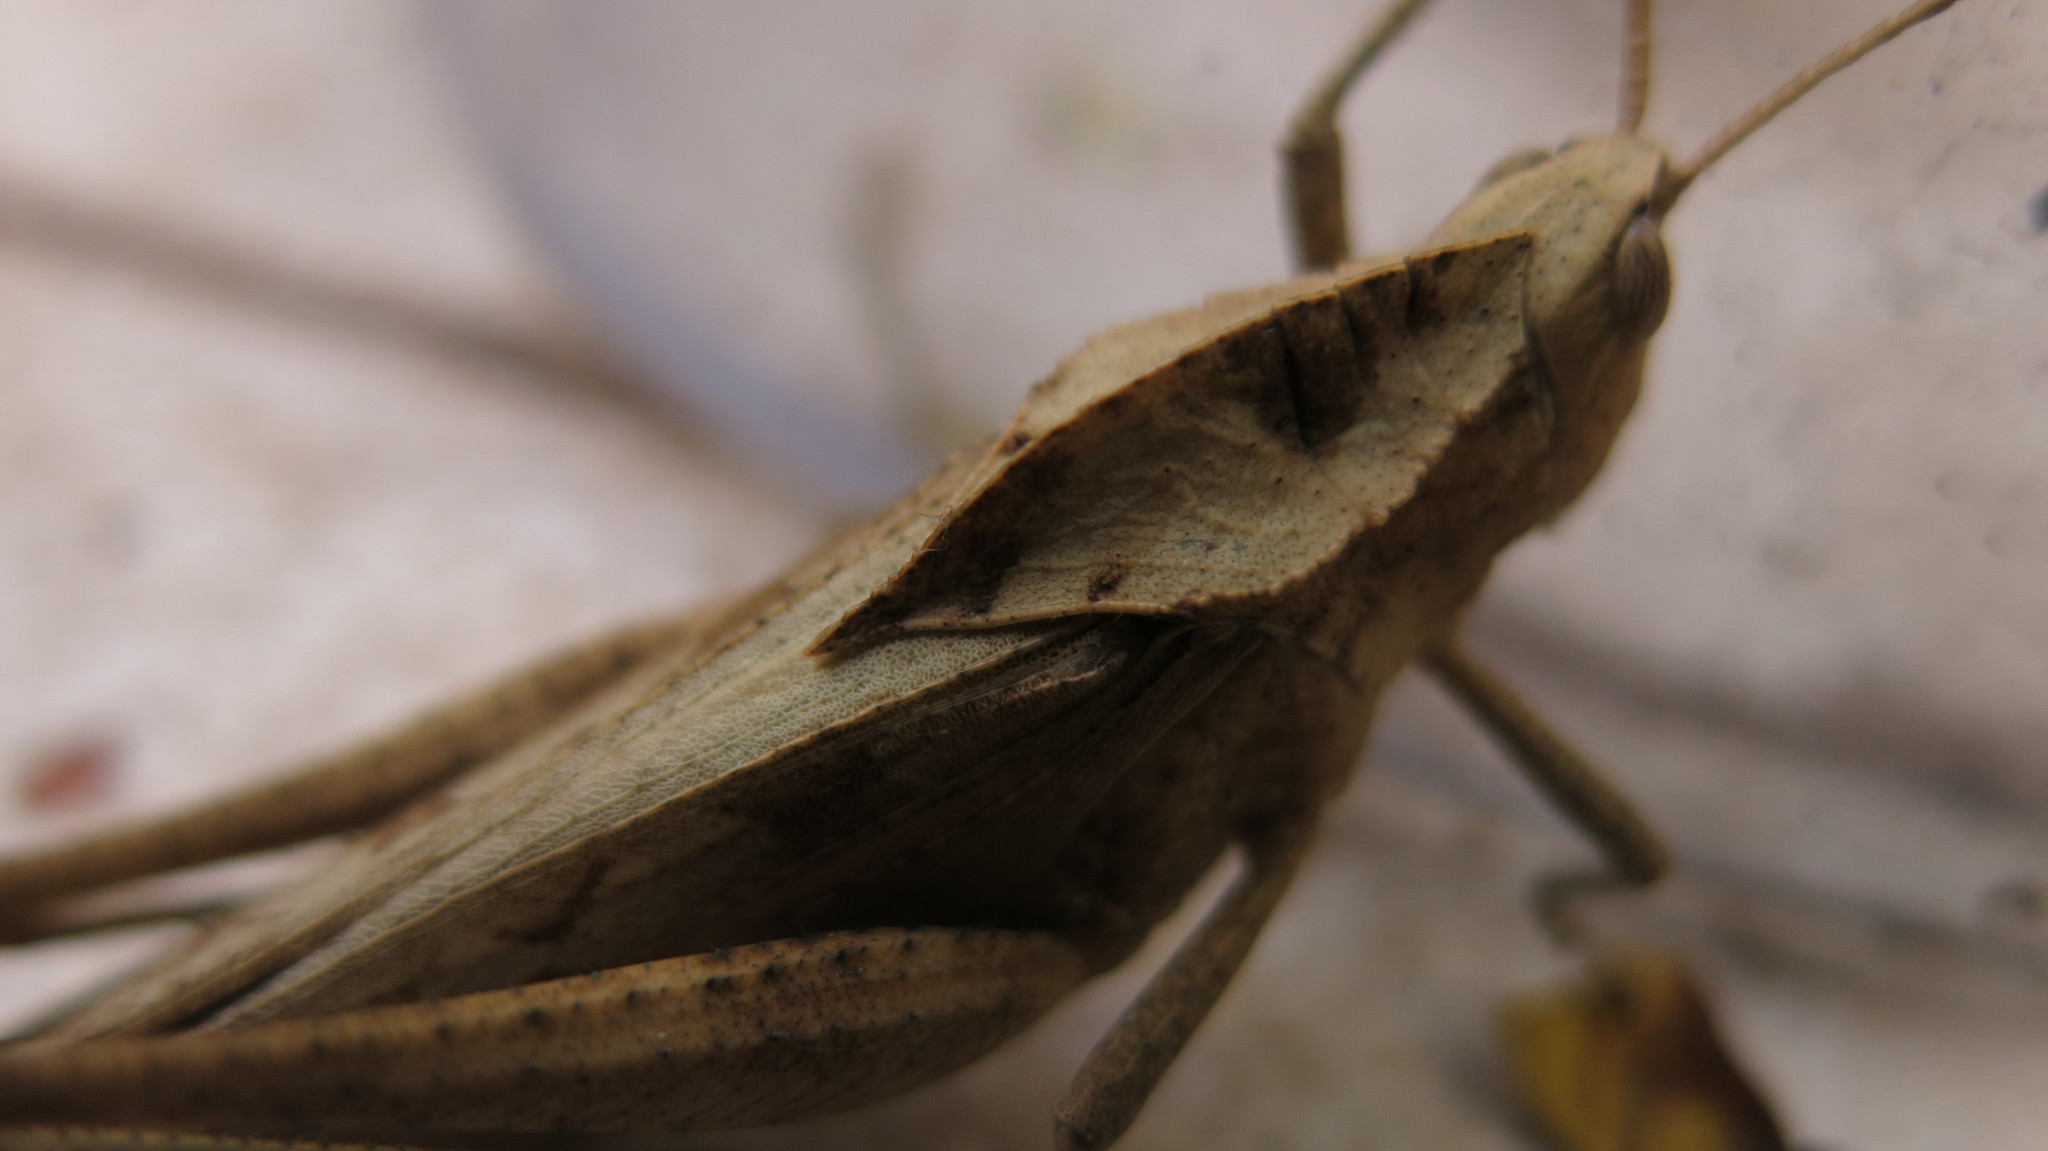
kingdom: Animalia
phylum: Arthropoda
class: Insecta
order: Orthoptera
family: Romaleidae
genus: Xyleus
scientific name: Xyleus discoideus
